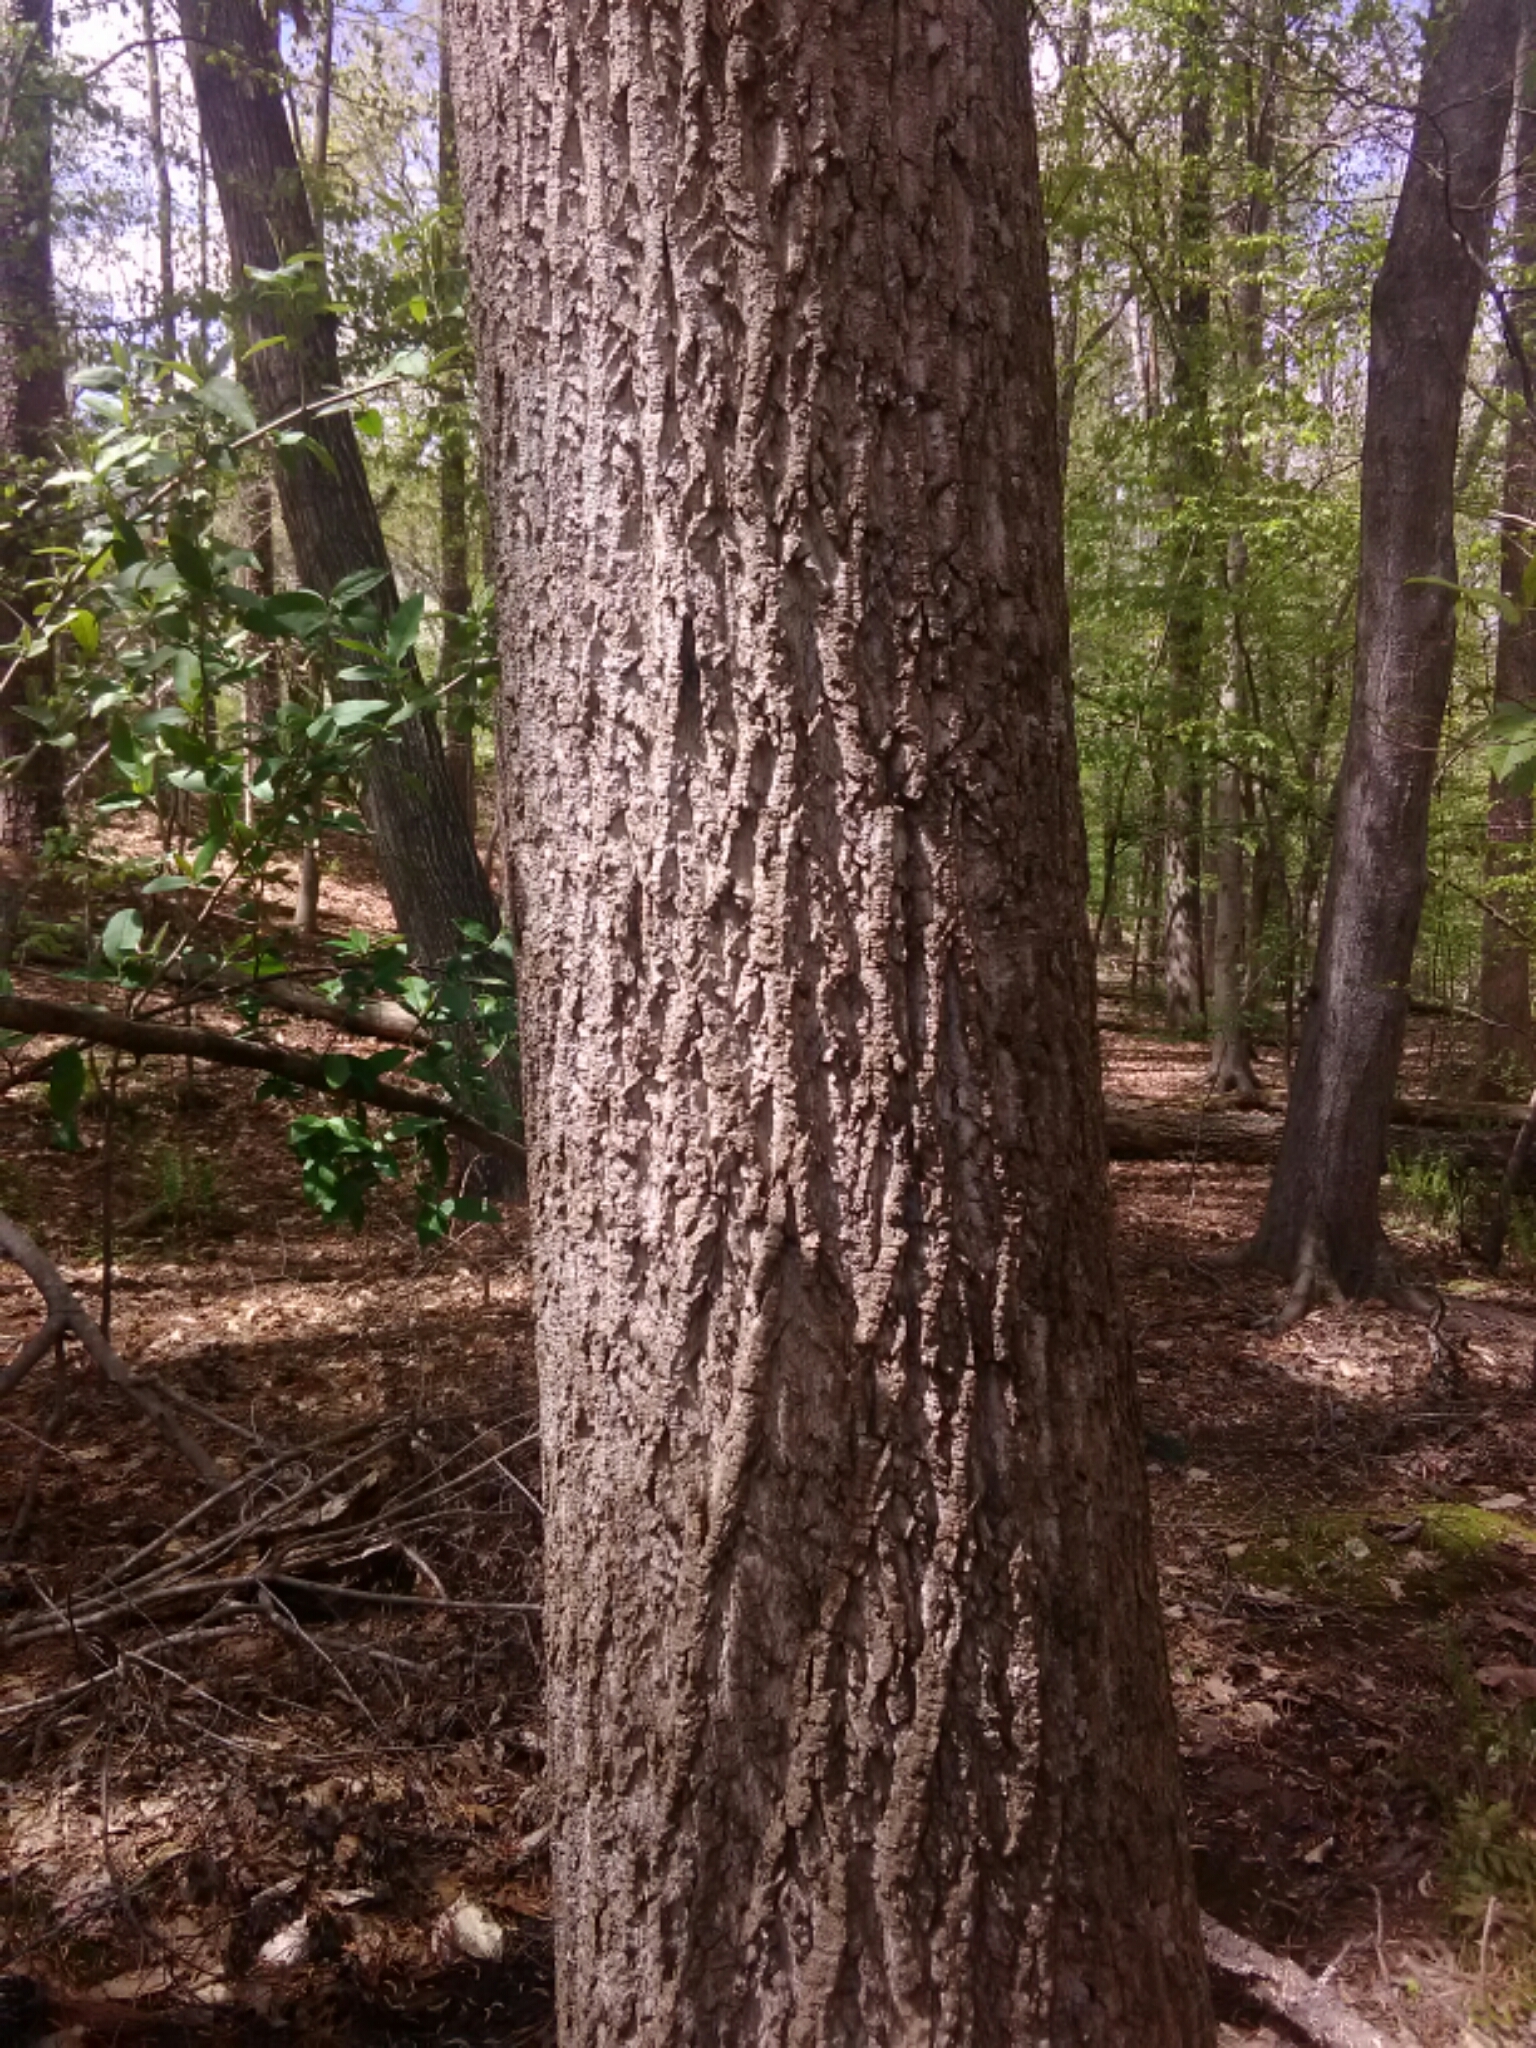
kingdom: Plantae
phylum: Tracheophyta
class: Magnoliopsida
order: Magnoliales
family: Magnoliaceae
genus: Liriodendron
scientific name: Liriodendron tulipifera
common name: Tulip tree
